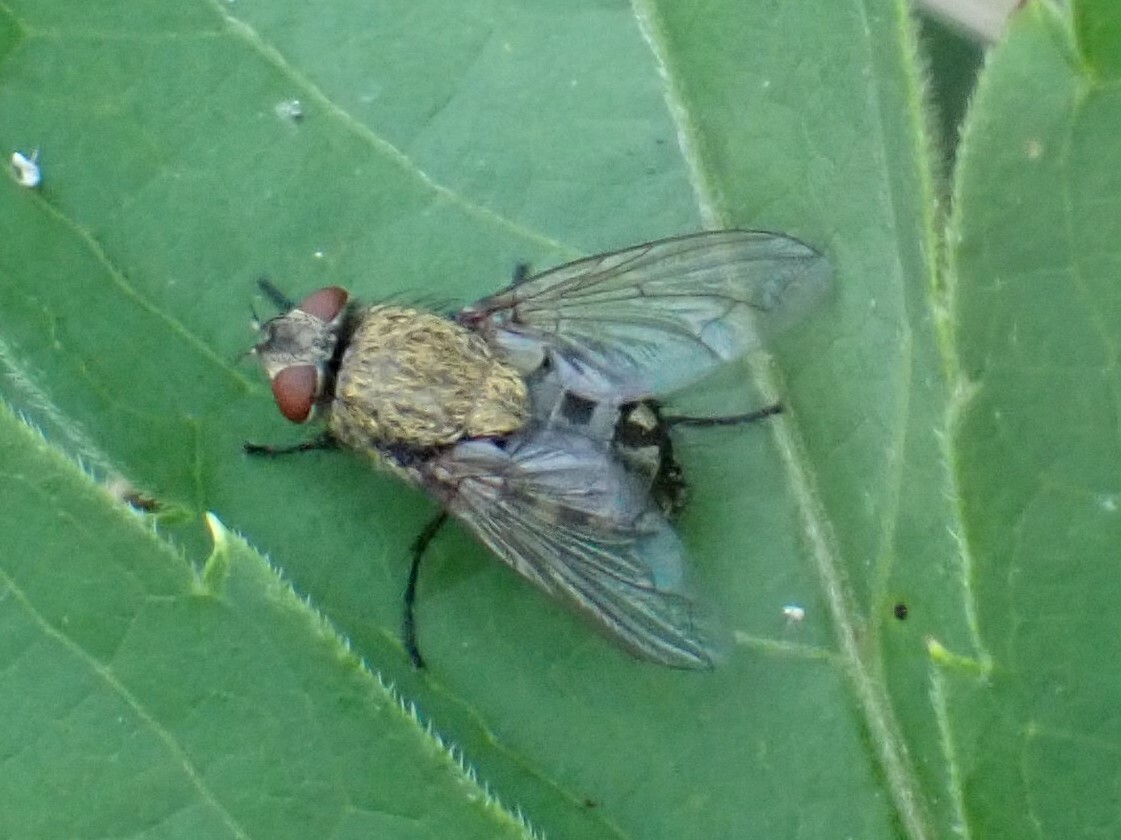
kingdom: Animalia
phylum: Arthropoda
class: Insecta
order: Diptera
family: Polleniidae
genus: Pollenia
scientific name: Pollenia
